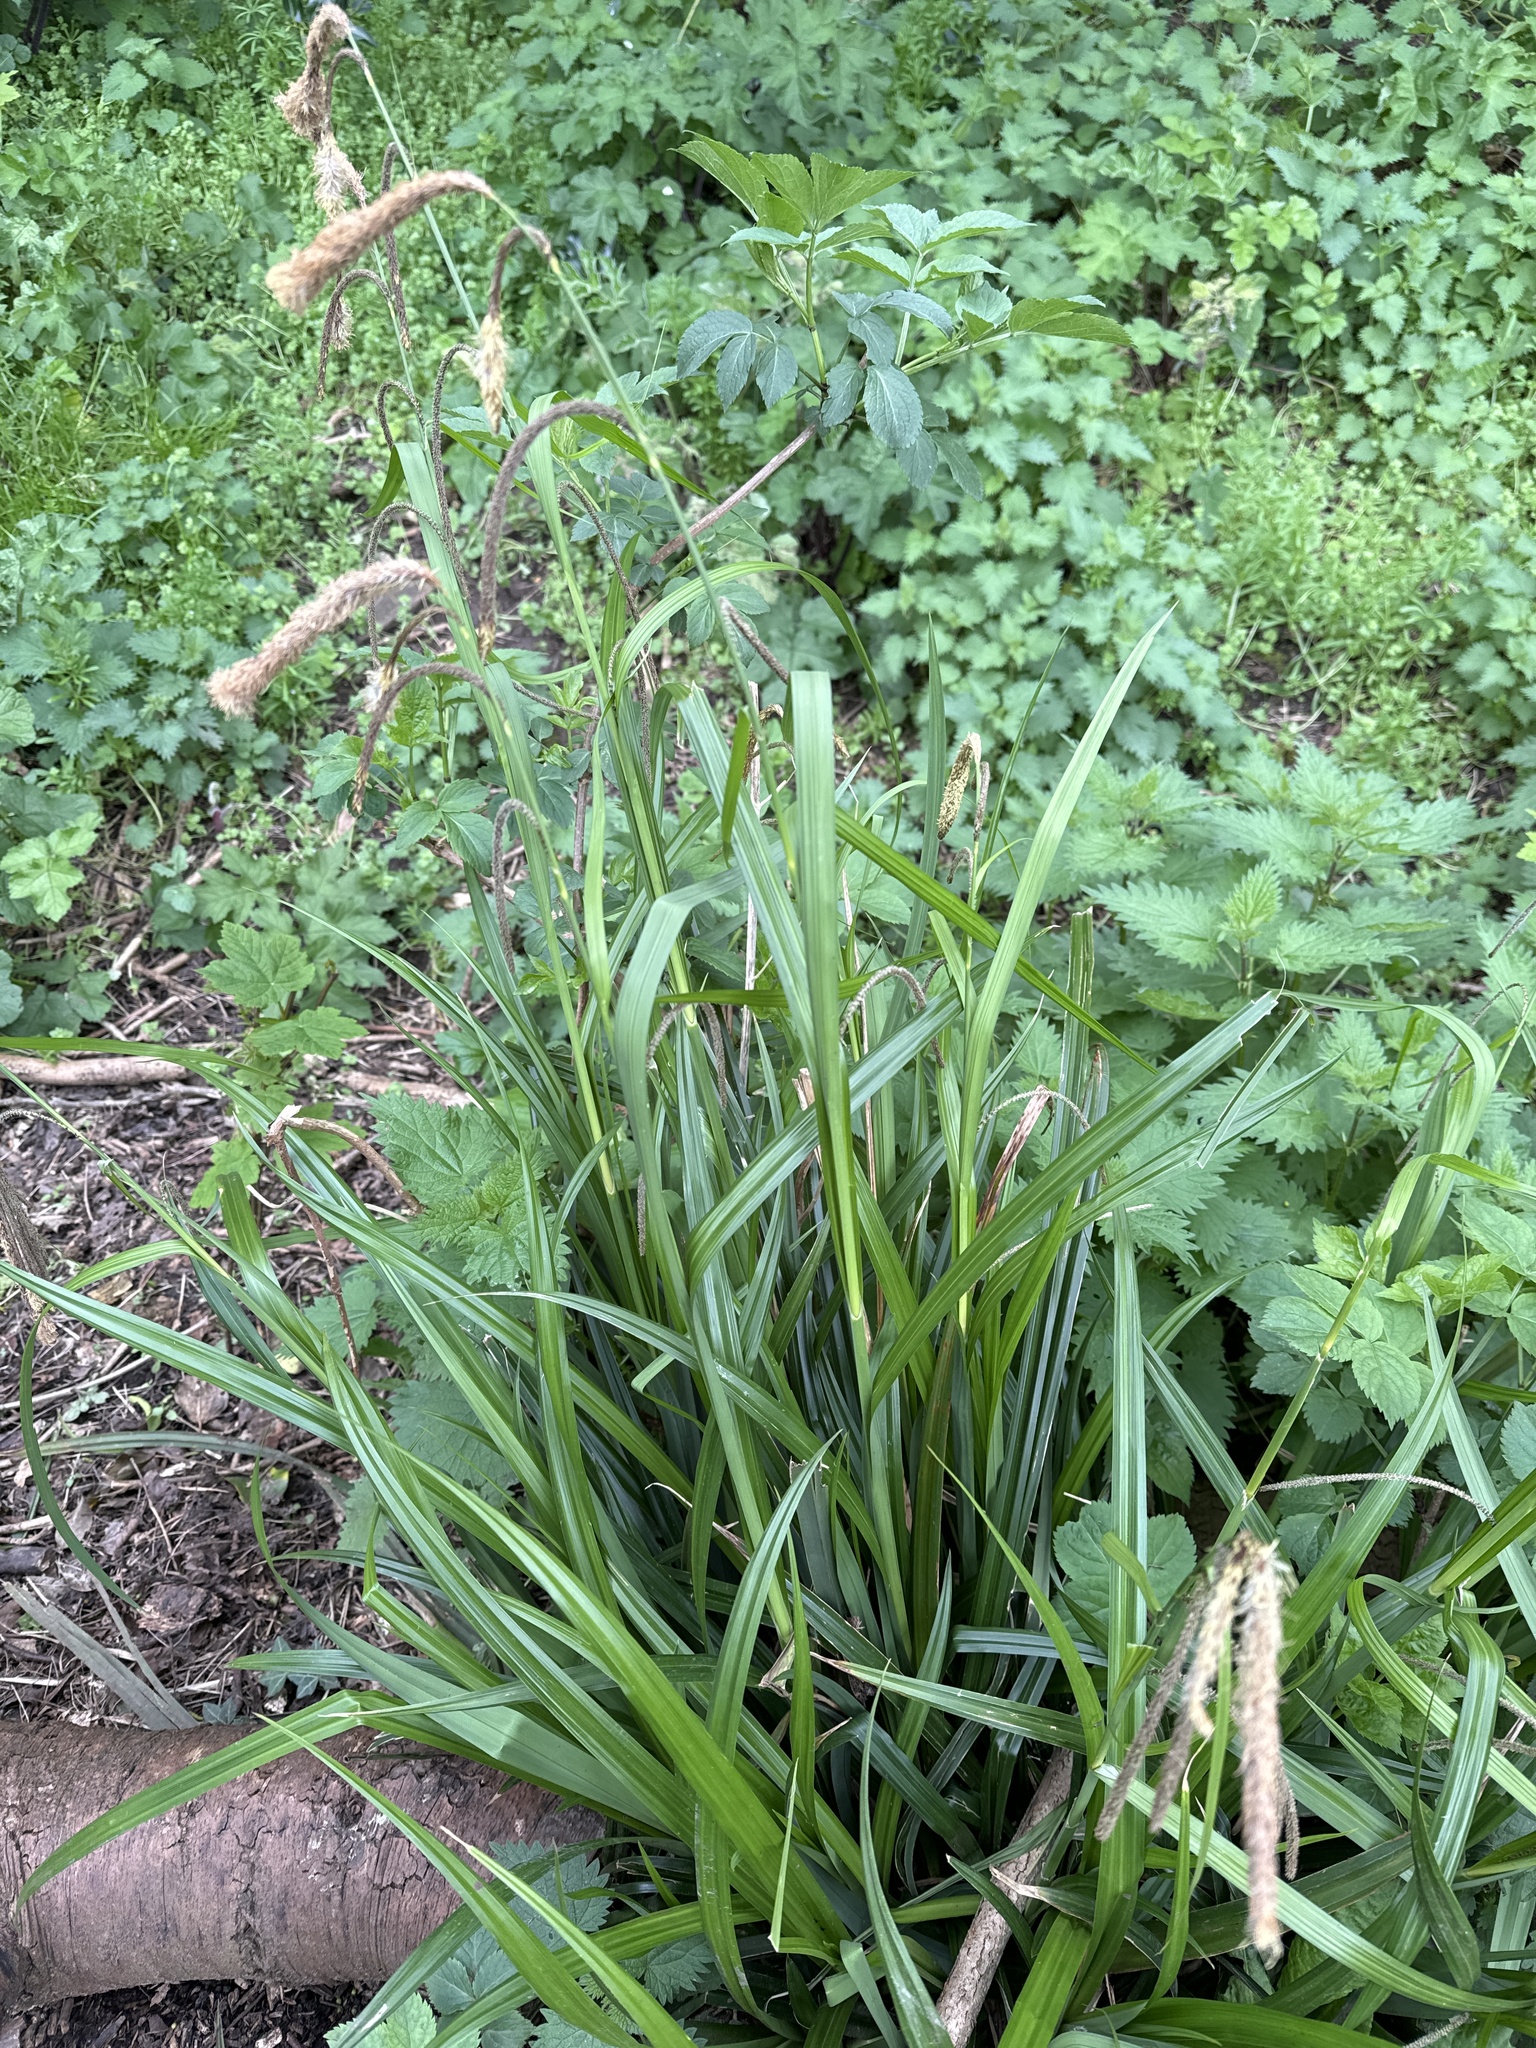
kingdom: Plantae
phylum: Tracheophyta
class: Liliopsida
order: Poales
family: Cyperaceae
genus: Carex
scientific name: Carex pendula
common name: Pendulous sedge
